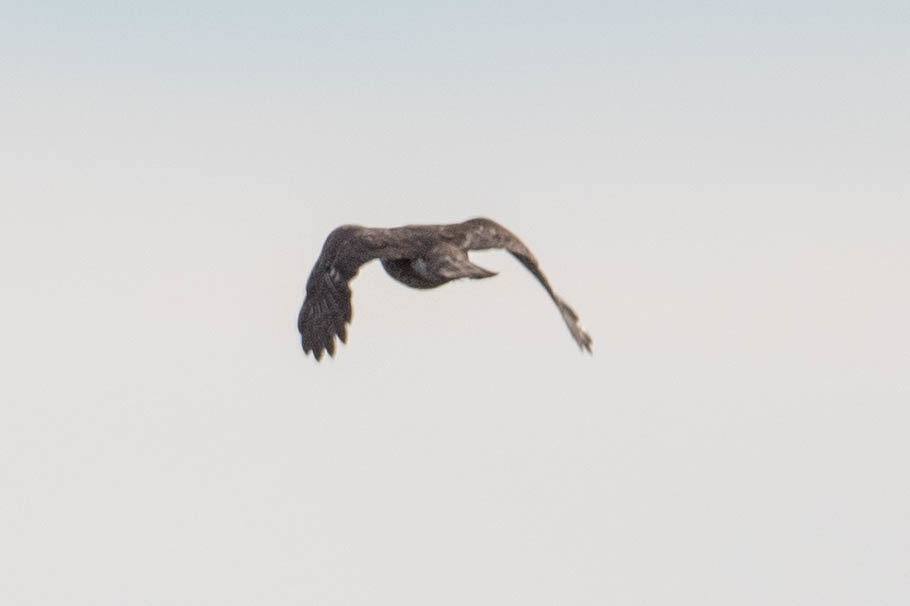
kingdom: Animalia
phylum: Chordata
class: Aves
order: Accipitriformes
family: Accipitridae
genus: Accipiter
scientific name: Accipiter cooperii
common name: Cooper's hawk
